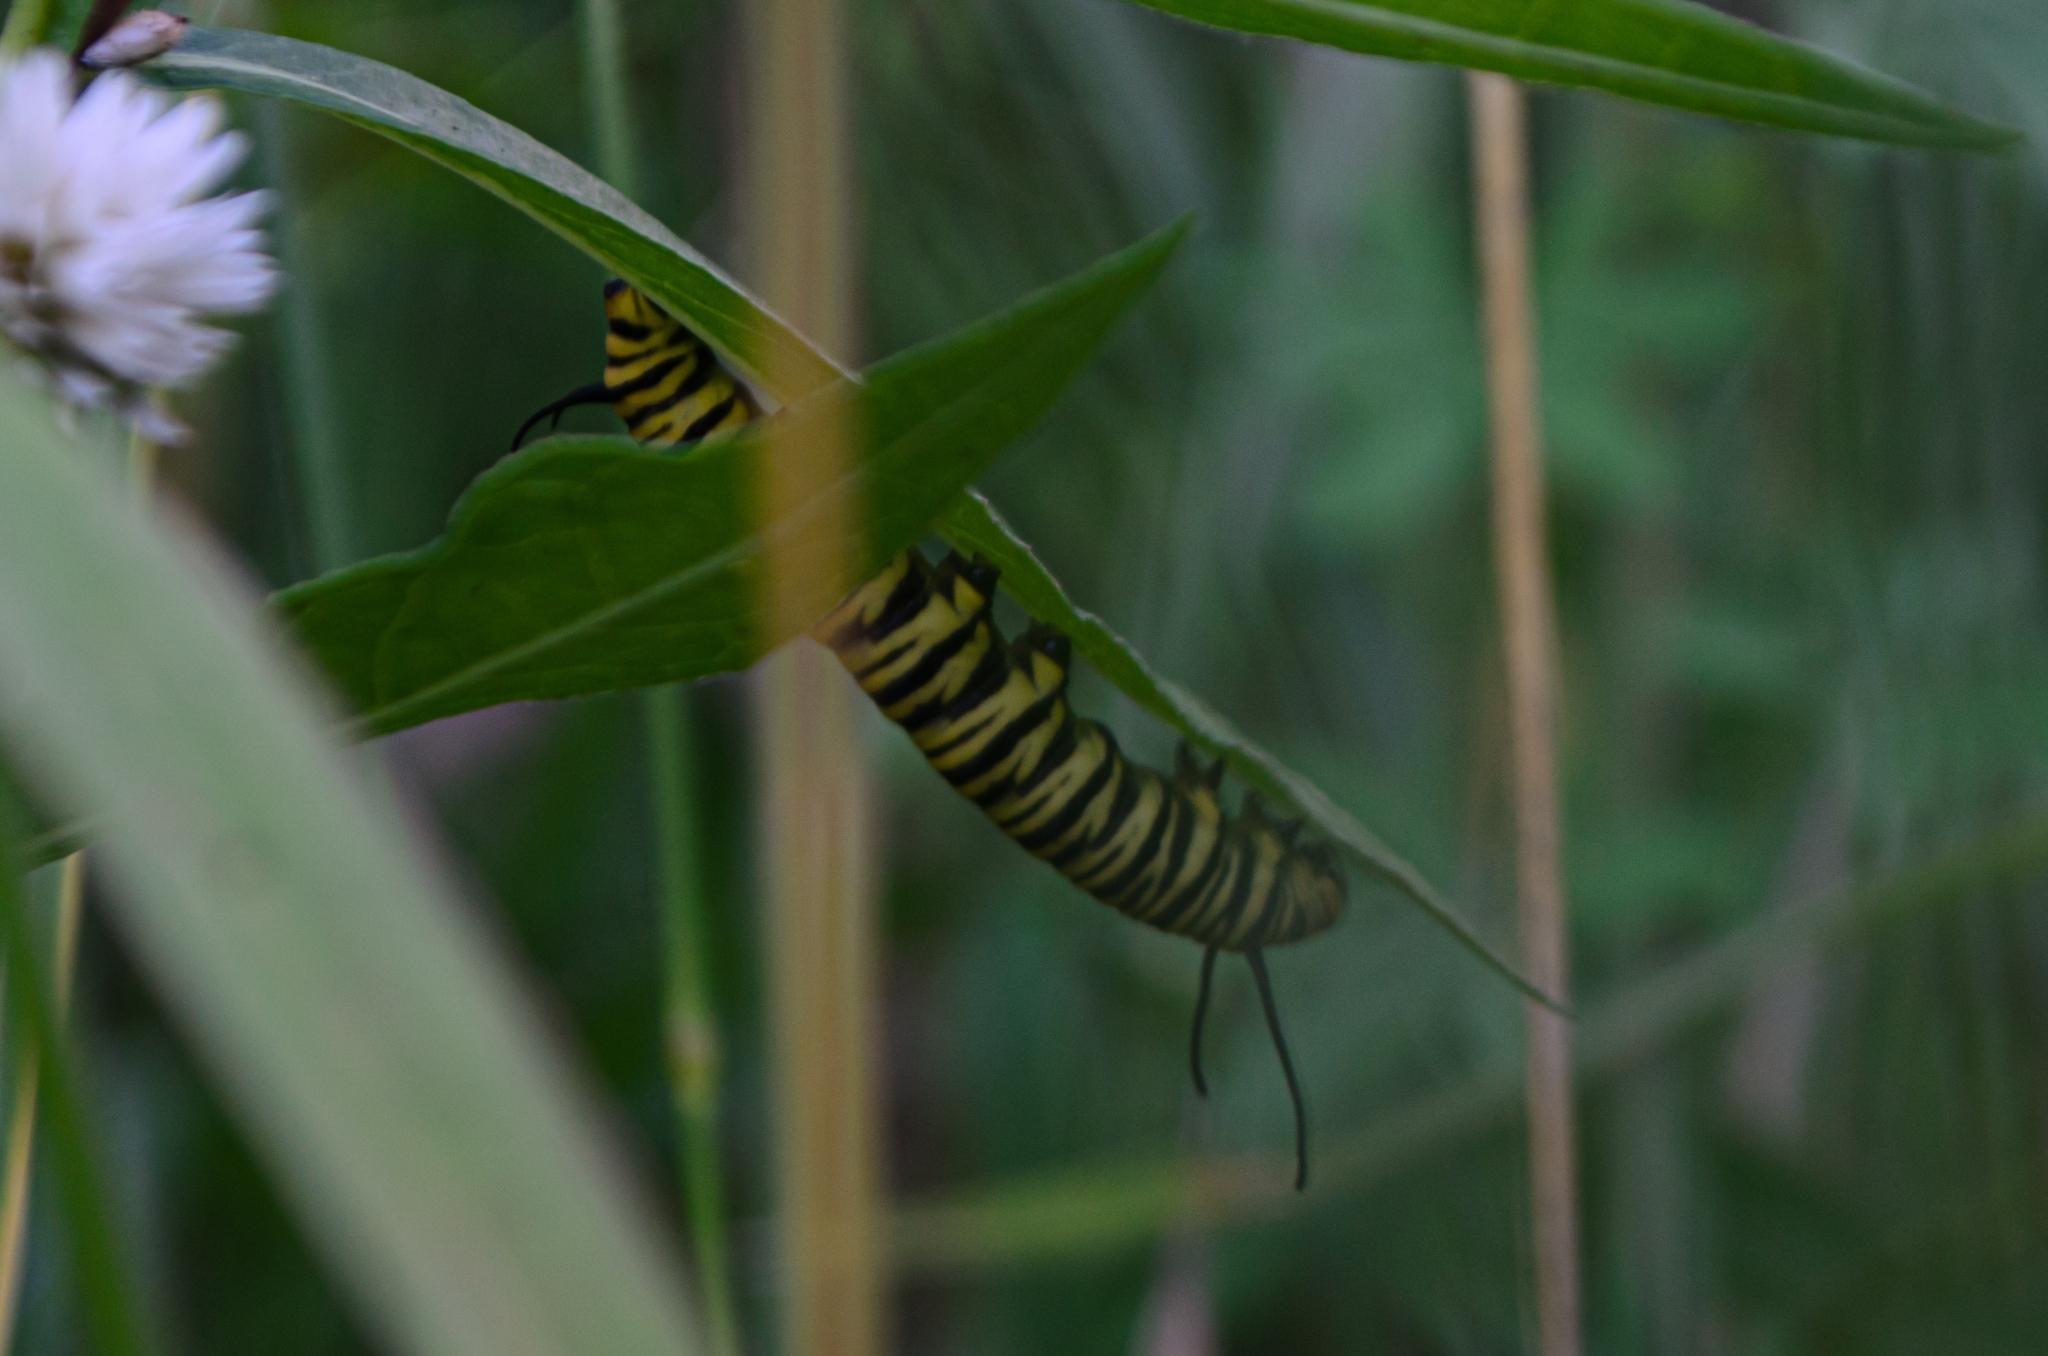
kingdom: Animalia
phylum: Arthropoda
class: Insecta
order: Lepidoptera
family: Nymphalidae
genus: Danaus
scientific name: Danaus erippus
